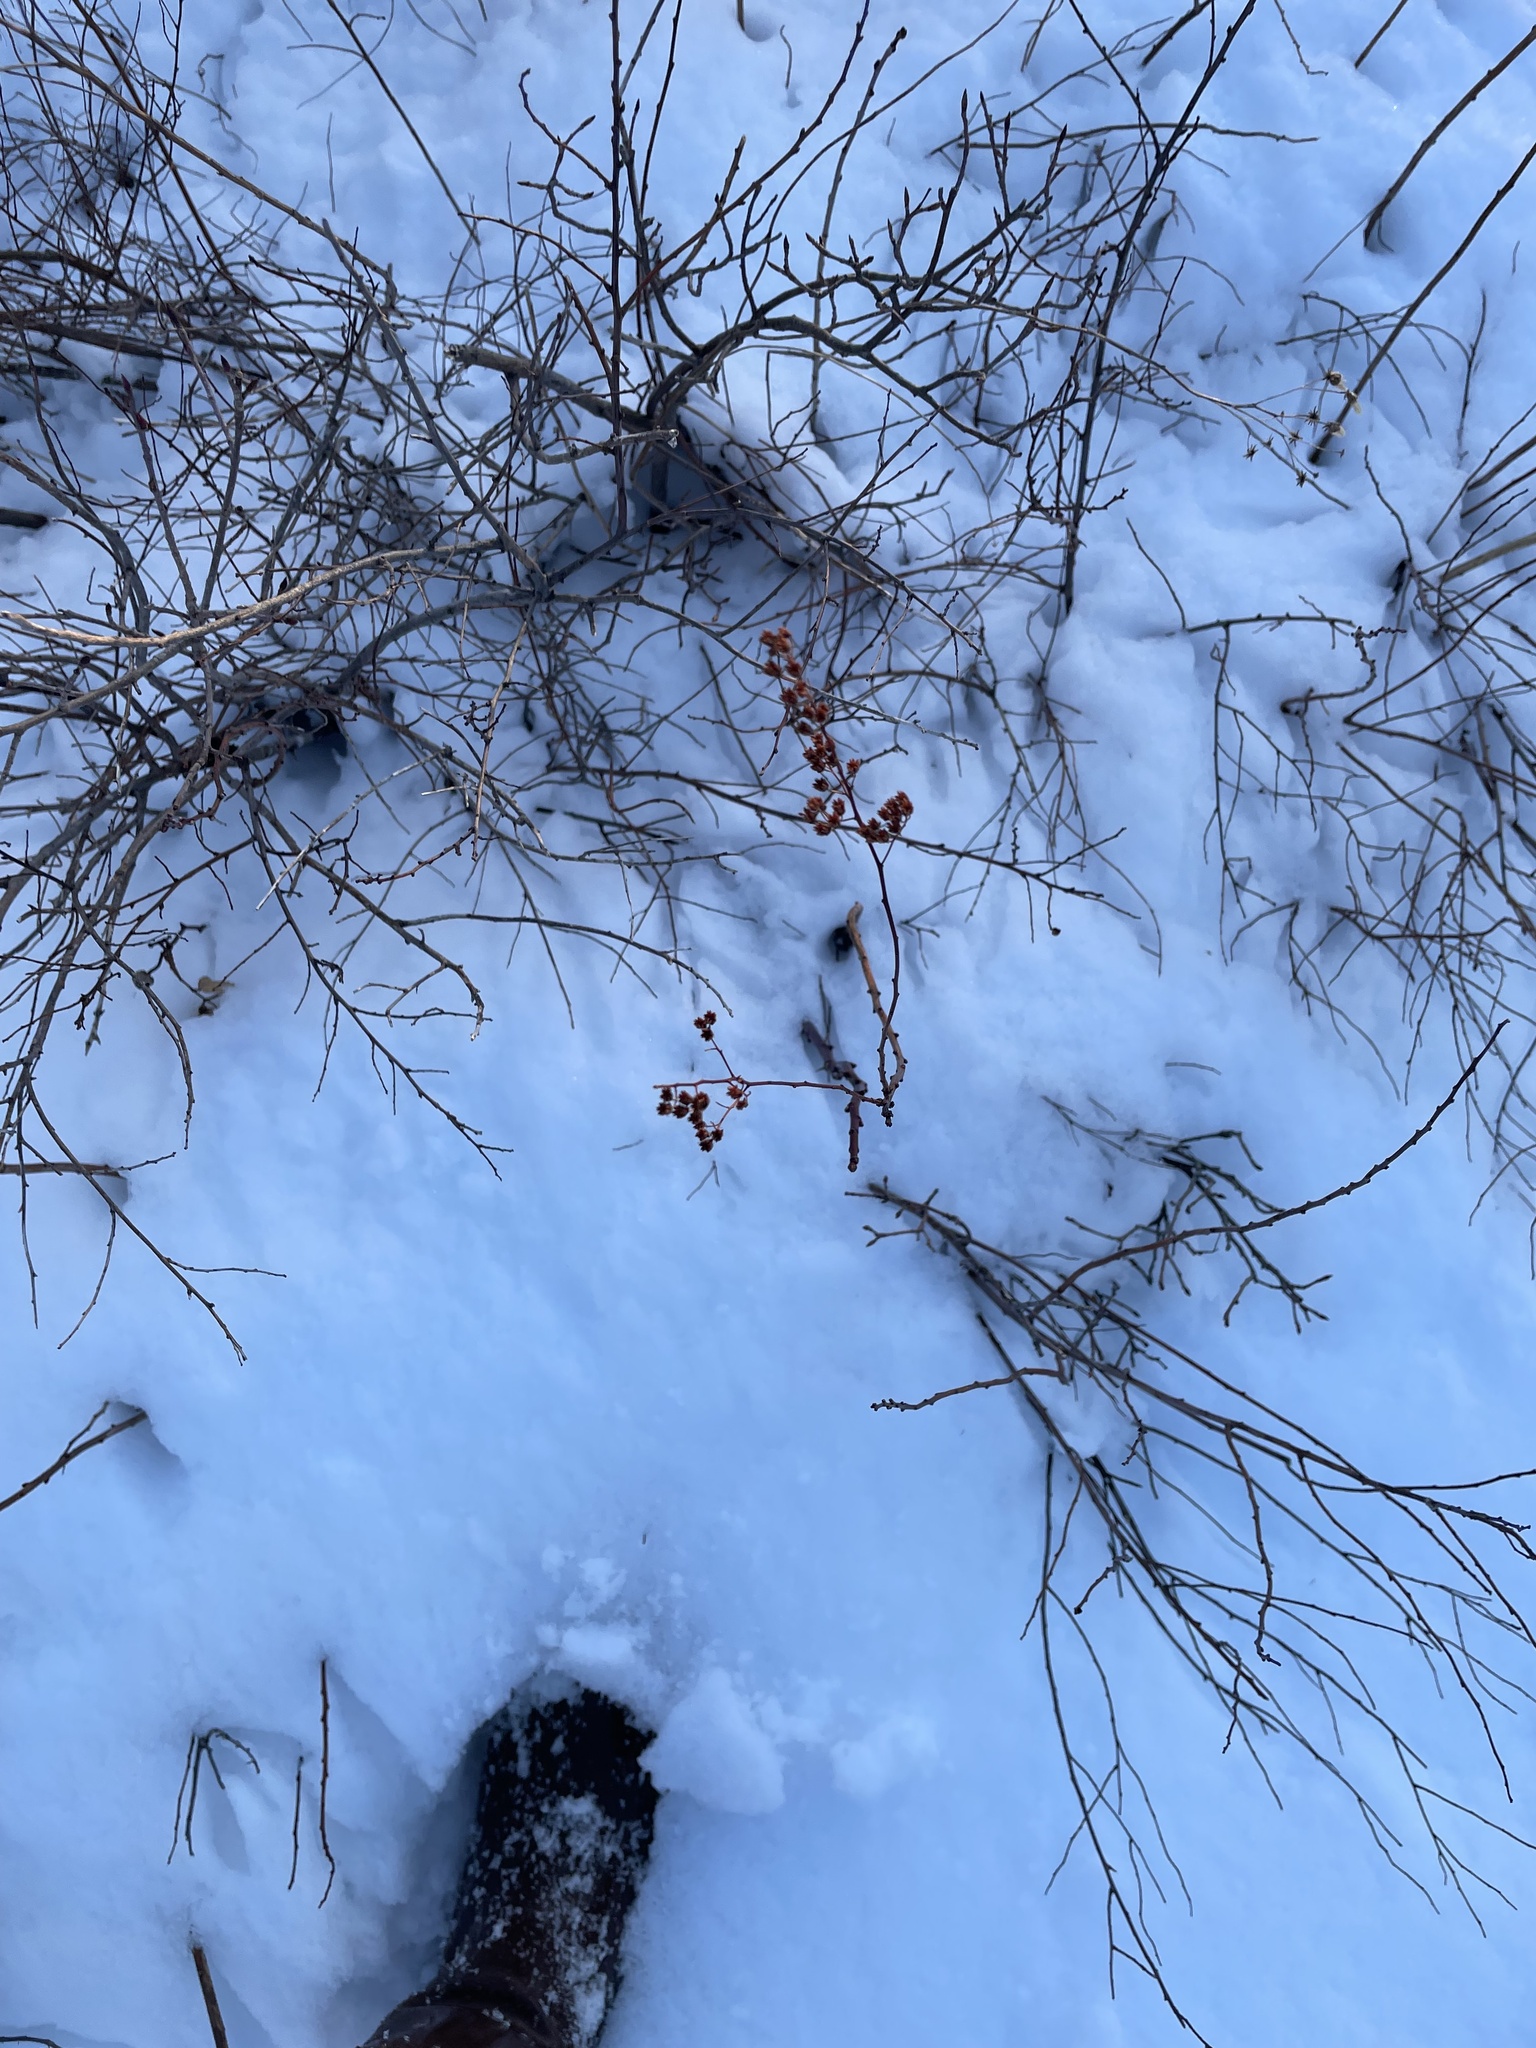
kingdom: Plantae
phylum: Tracheophyta
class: Magnoliopsida
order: Rosales
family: Rosaceae
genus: Spiraea
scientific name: Spiraea alba
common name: Pale bridewort
